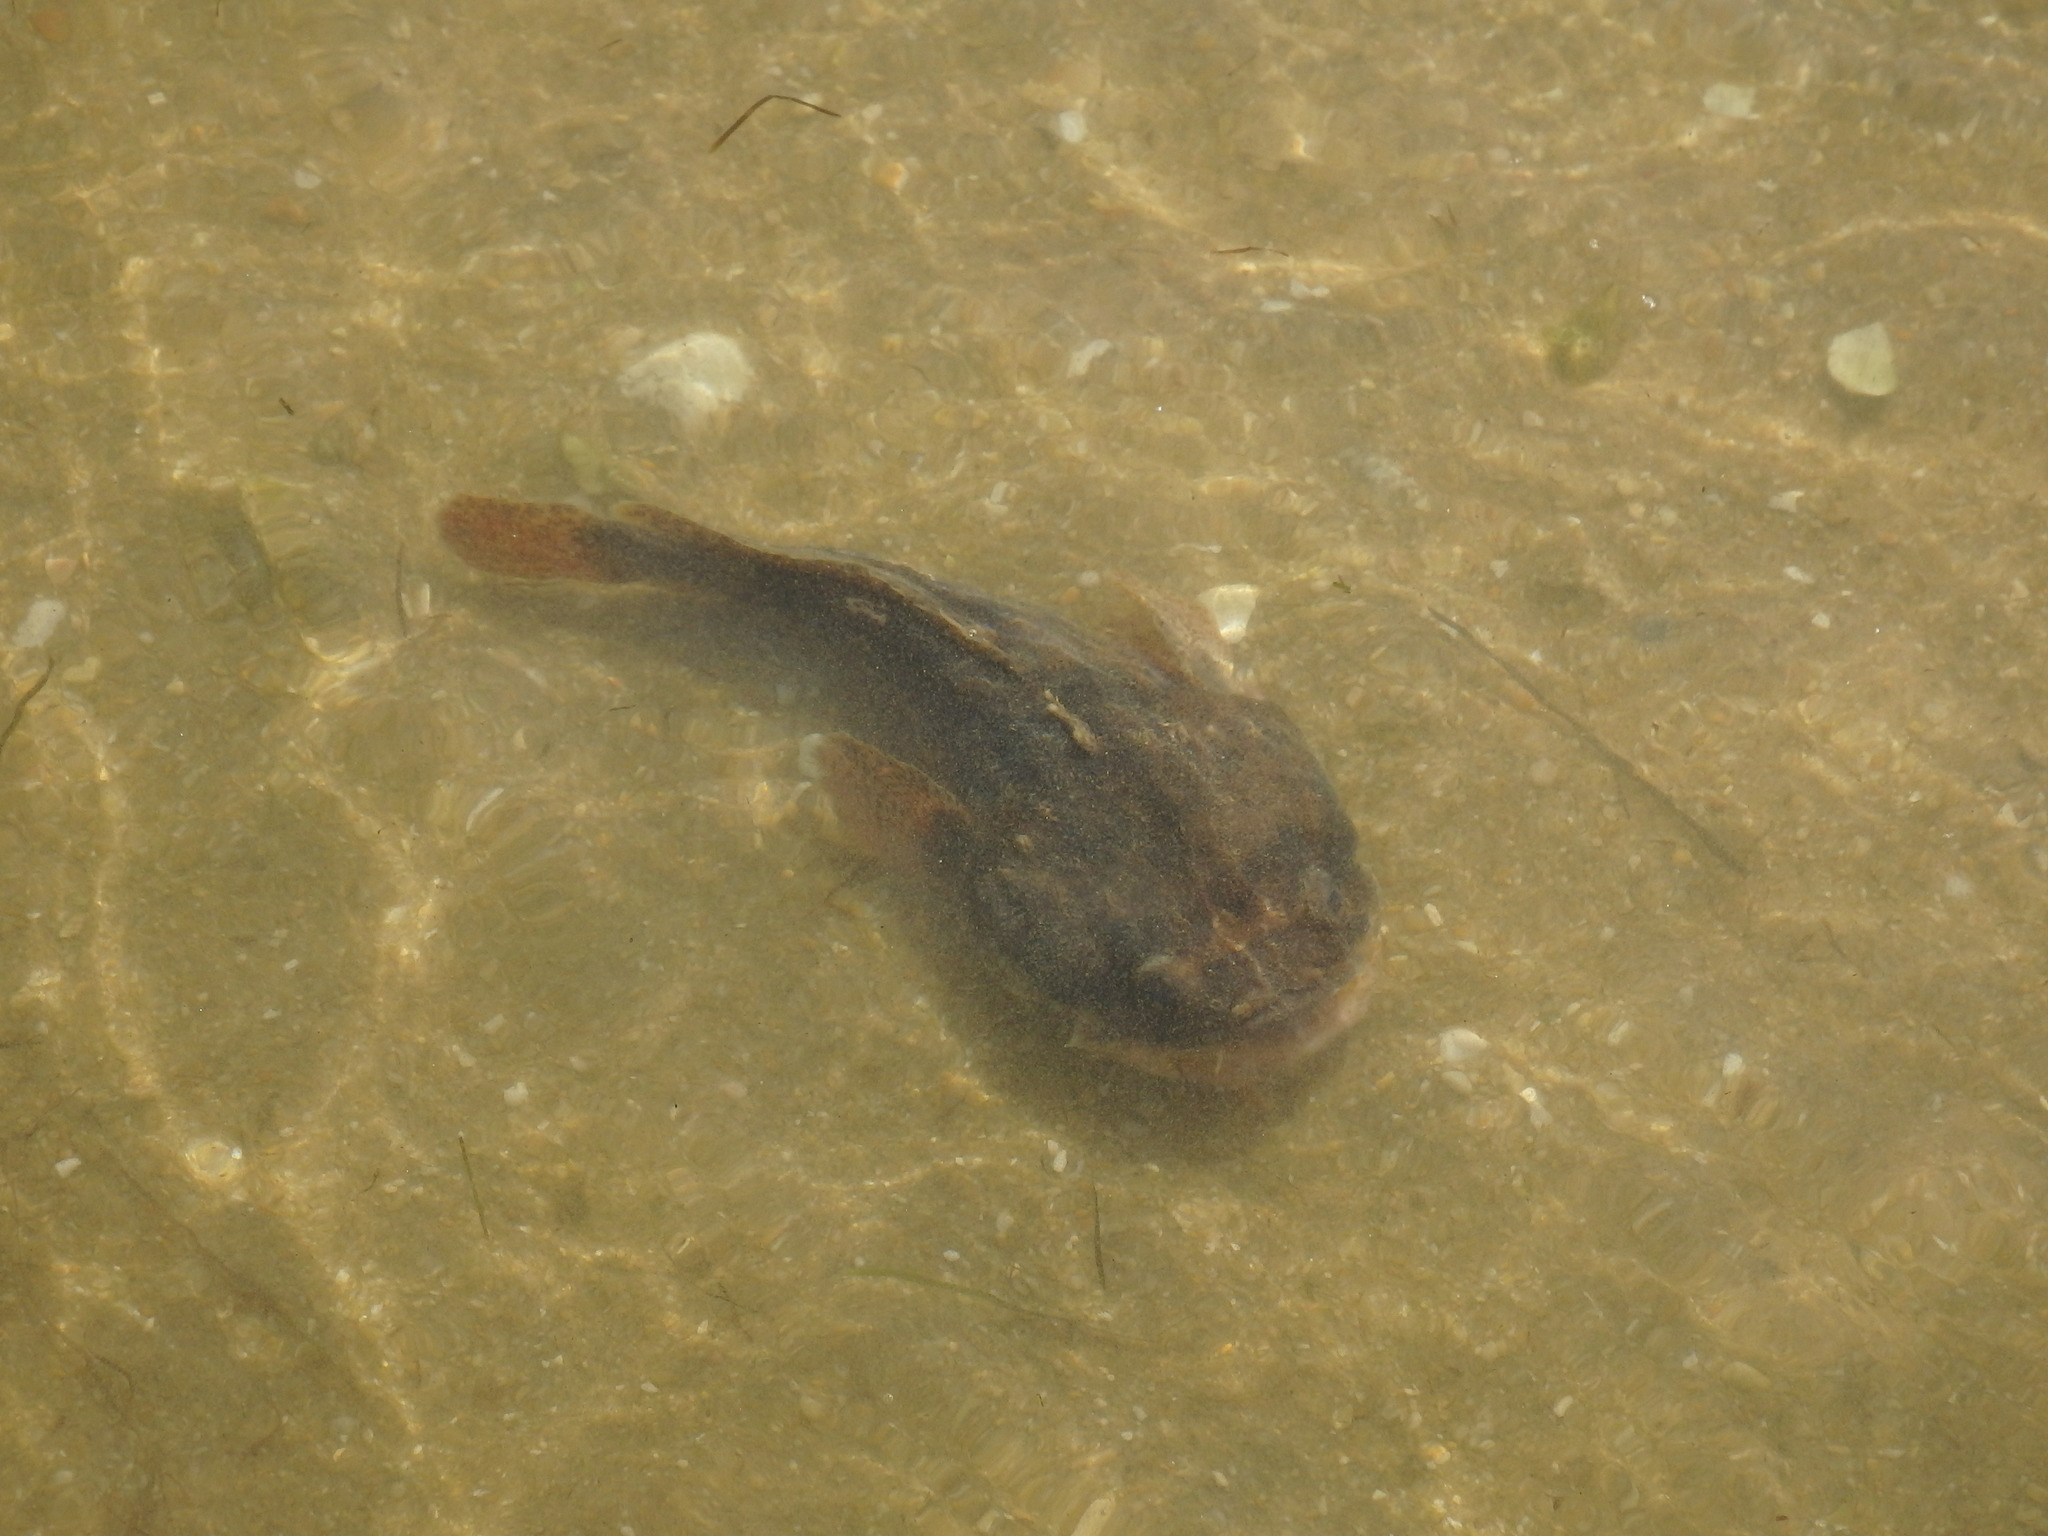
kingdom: Animalia
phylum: Chordata
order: Batrachoidiformes
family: Batrachoididae
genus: Halobatrachus
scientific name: Halobatrachus didactylus
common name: Lusitanian toadfish
